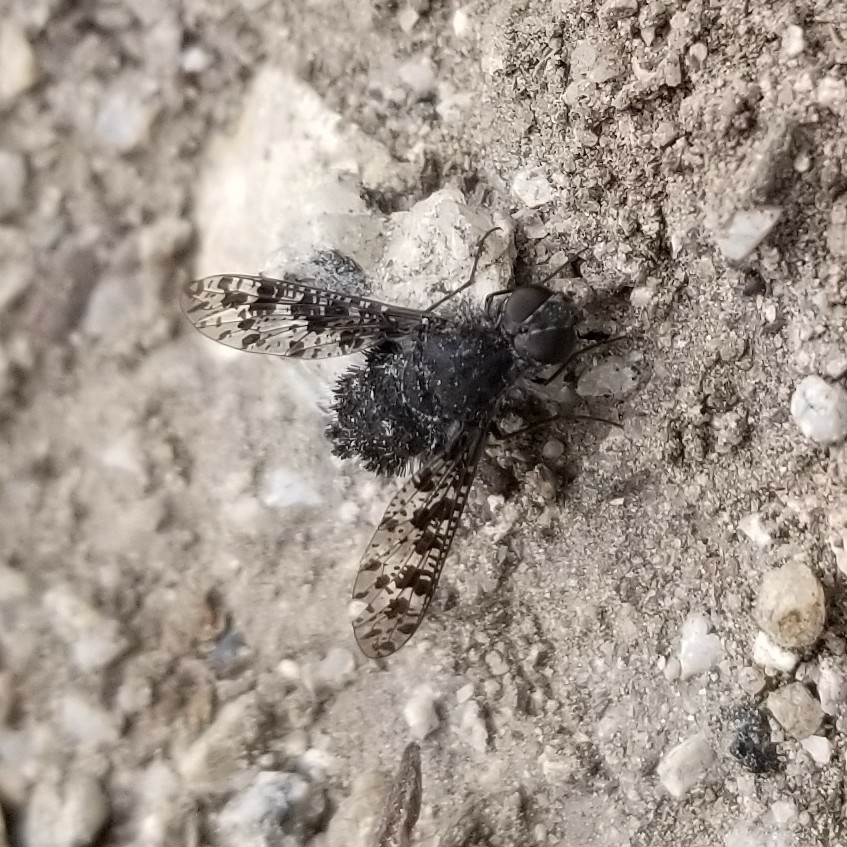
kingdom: Animalia
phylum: Arthropoda
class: Insecta
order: Diptera
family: Bombyliidae
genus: Anthrax
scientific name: Anthrax
